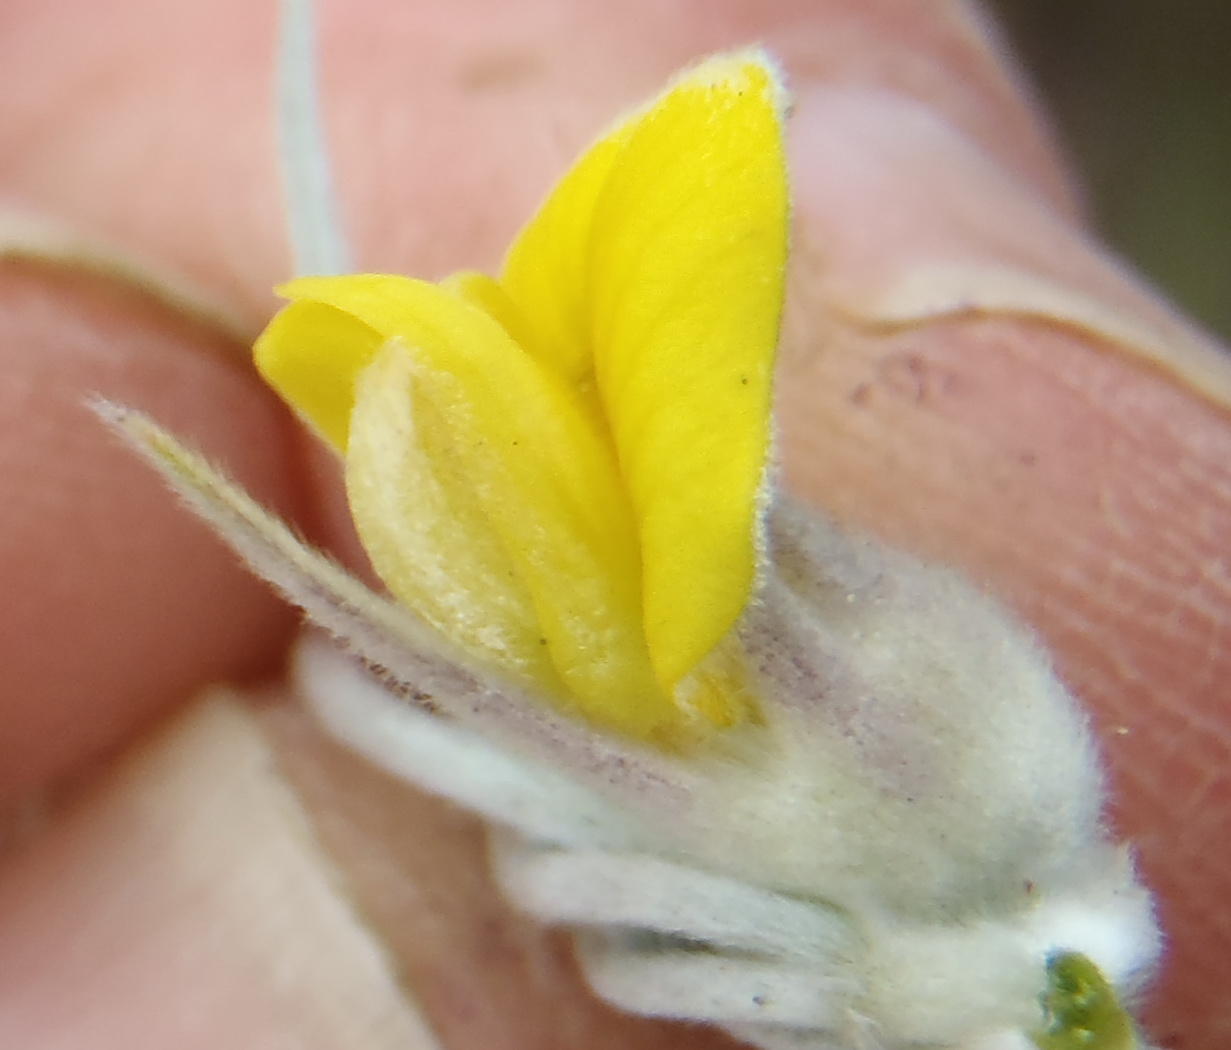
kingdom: Plantae
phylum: Tracheophyta
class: Magnoliopsida
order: Fabales
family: Fabaceae
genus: Aspalathus
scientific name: Aspalathus setacea
